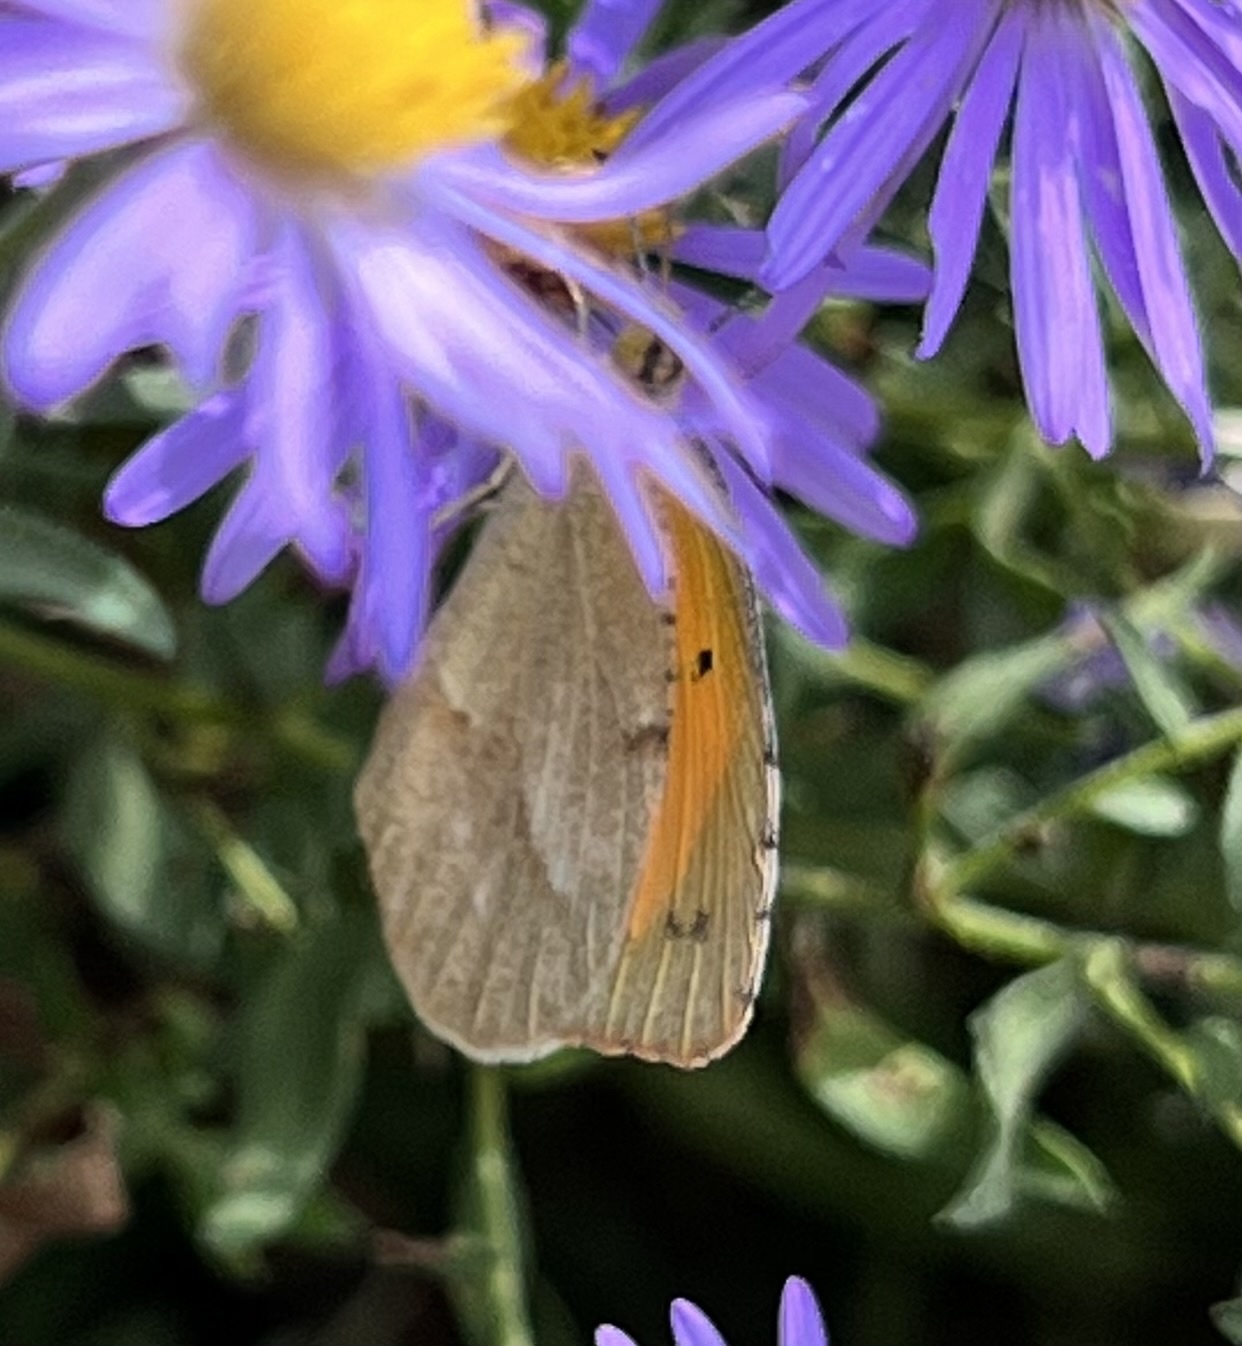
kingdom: Animalia
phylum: Arthropoda
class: Insecta
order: Lepidoptera
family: Pieridae
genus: Abaeis
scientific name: Abaeis nicippe
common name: Sleepy orange
